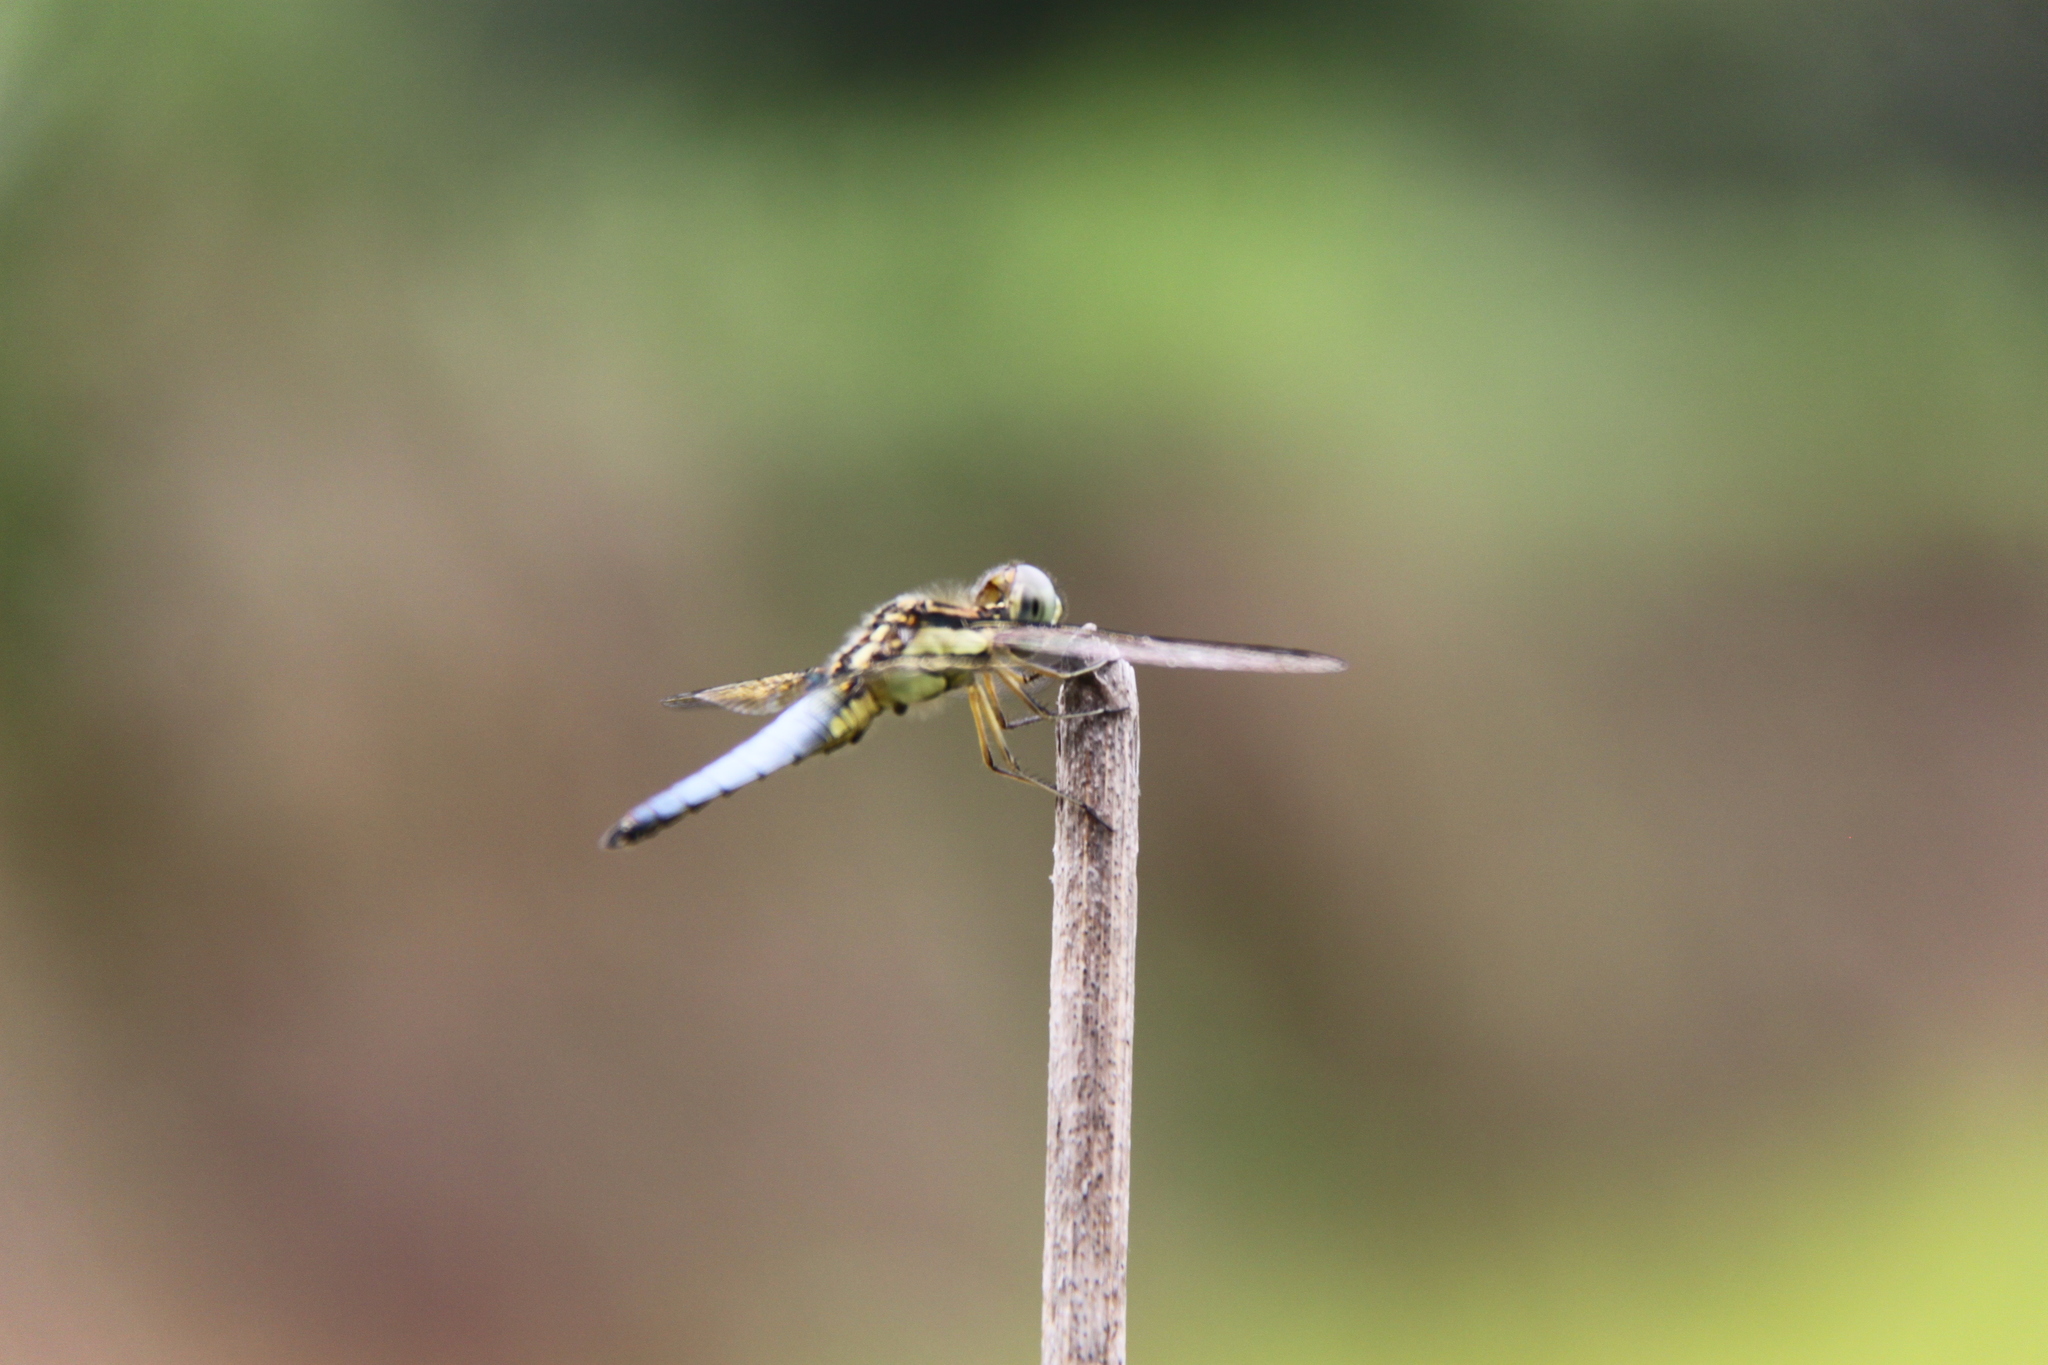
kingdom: Animalia
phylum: Arthropoda
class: Insecta
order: Odonata
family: Libellulidae
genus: Palpopleura
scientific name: Palpopleura sexmaculata
